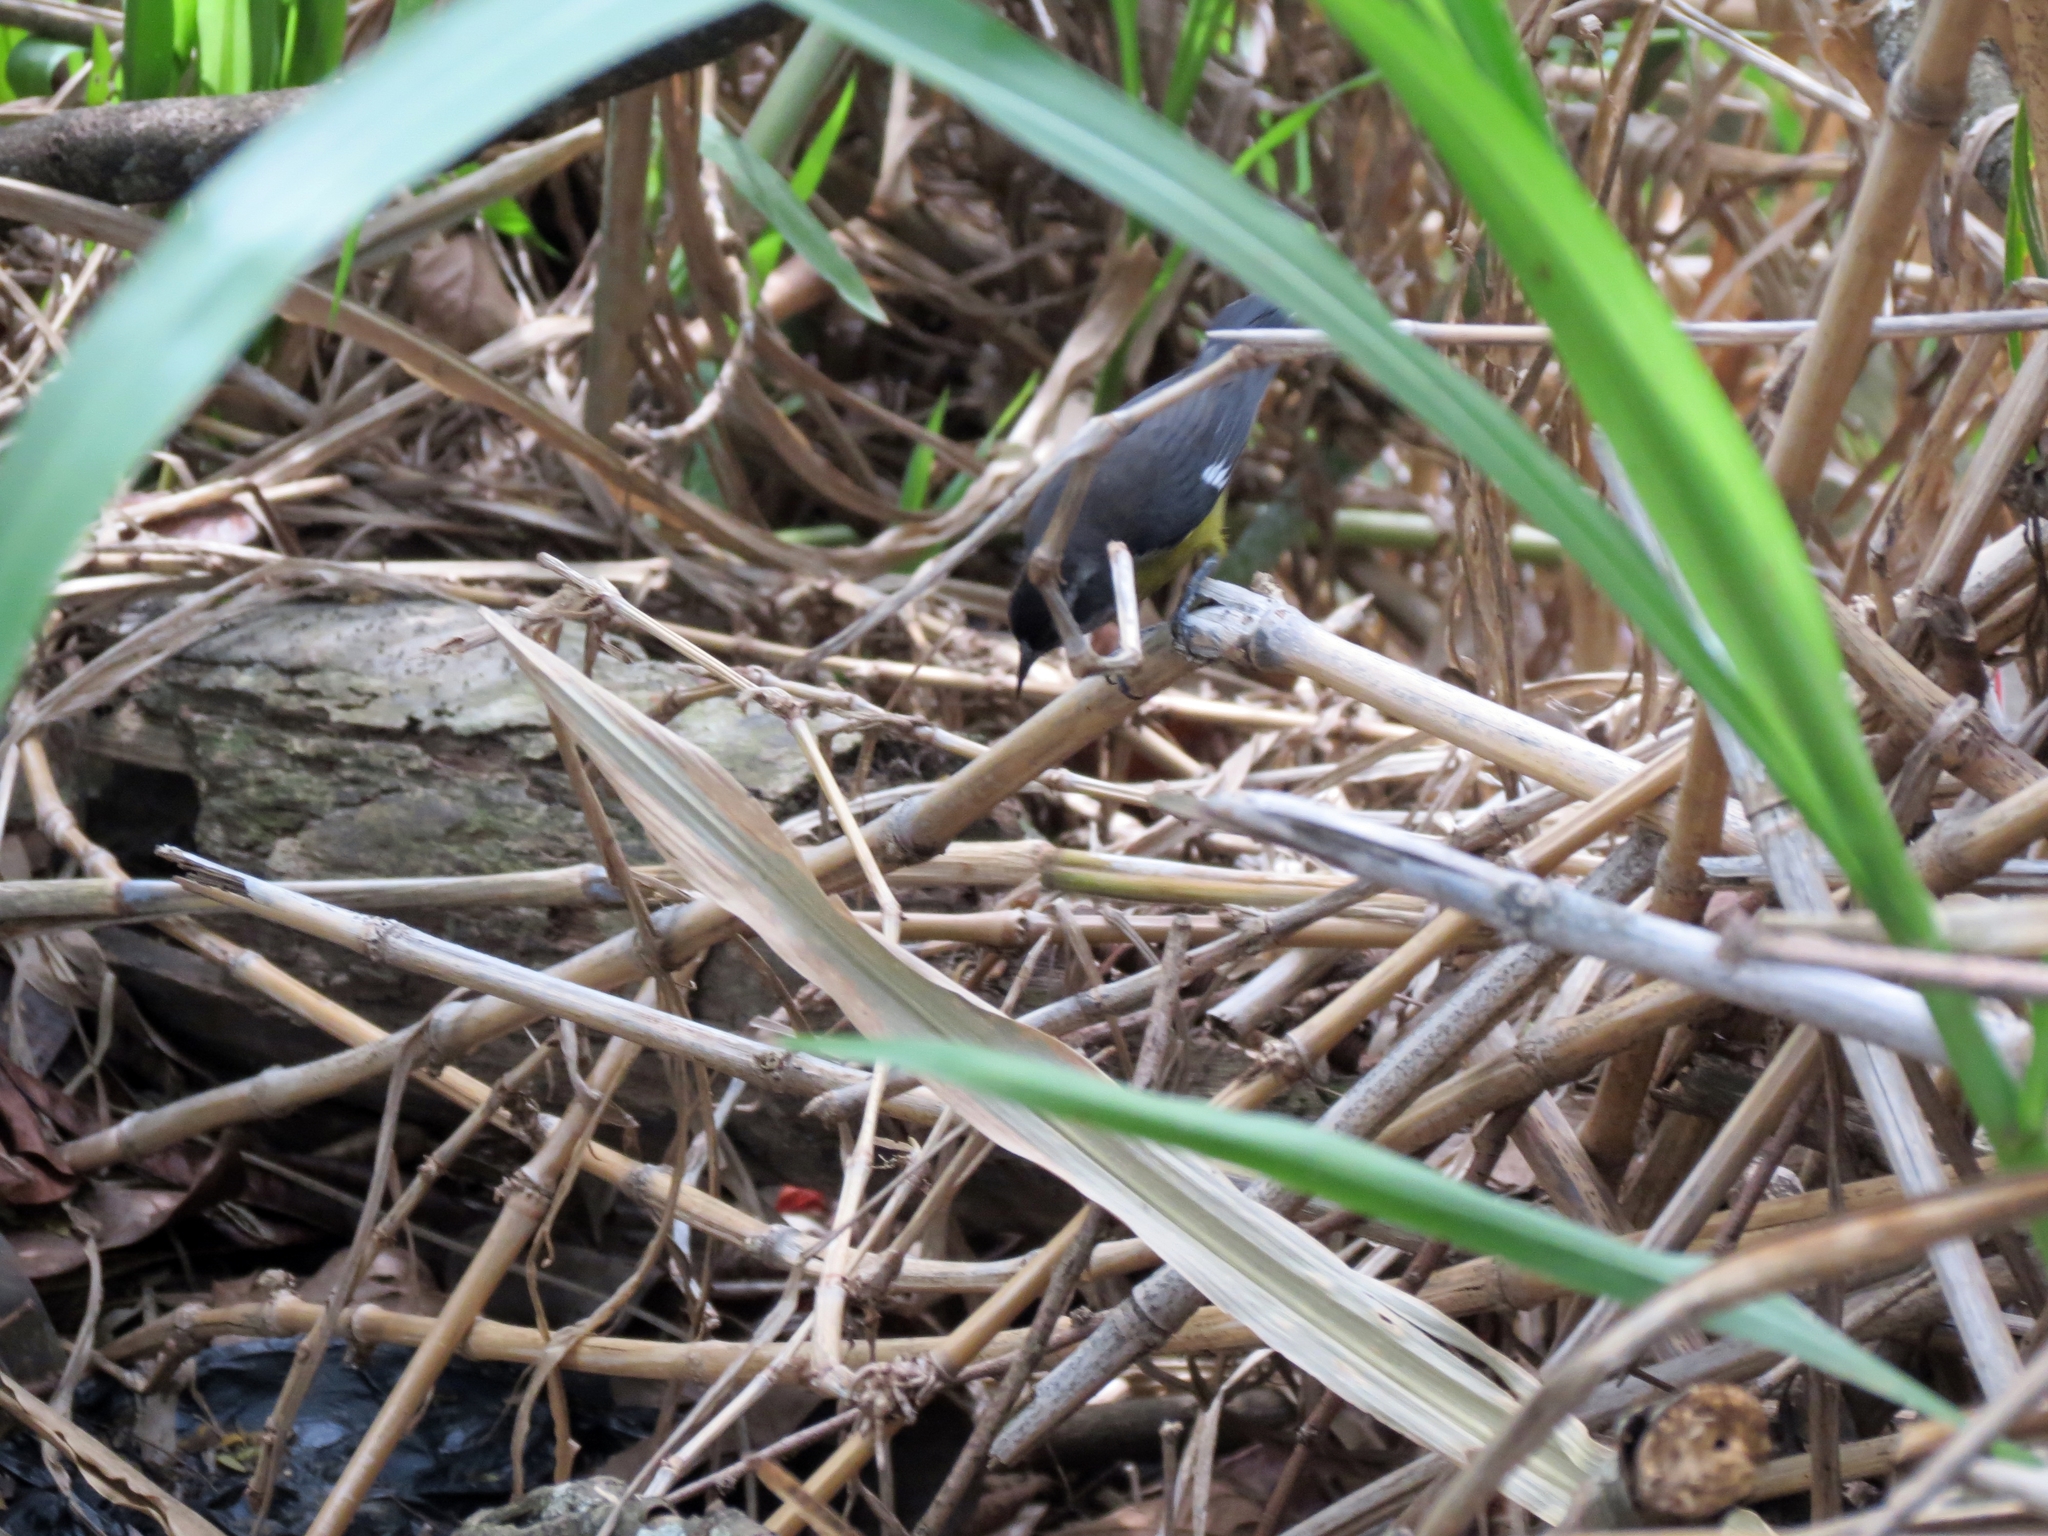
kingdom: Animalia
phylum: Chordata
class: Aves
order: Passeriformes
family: Thraupidae
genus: Coereba
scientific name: Coereba flaveola
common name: Bananaquit
